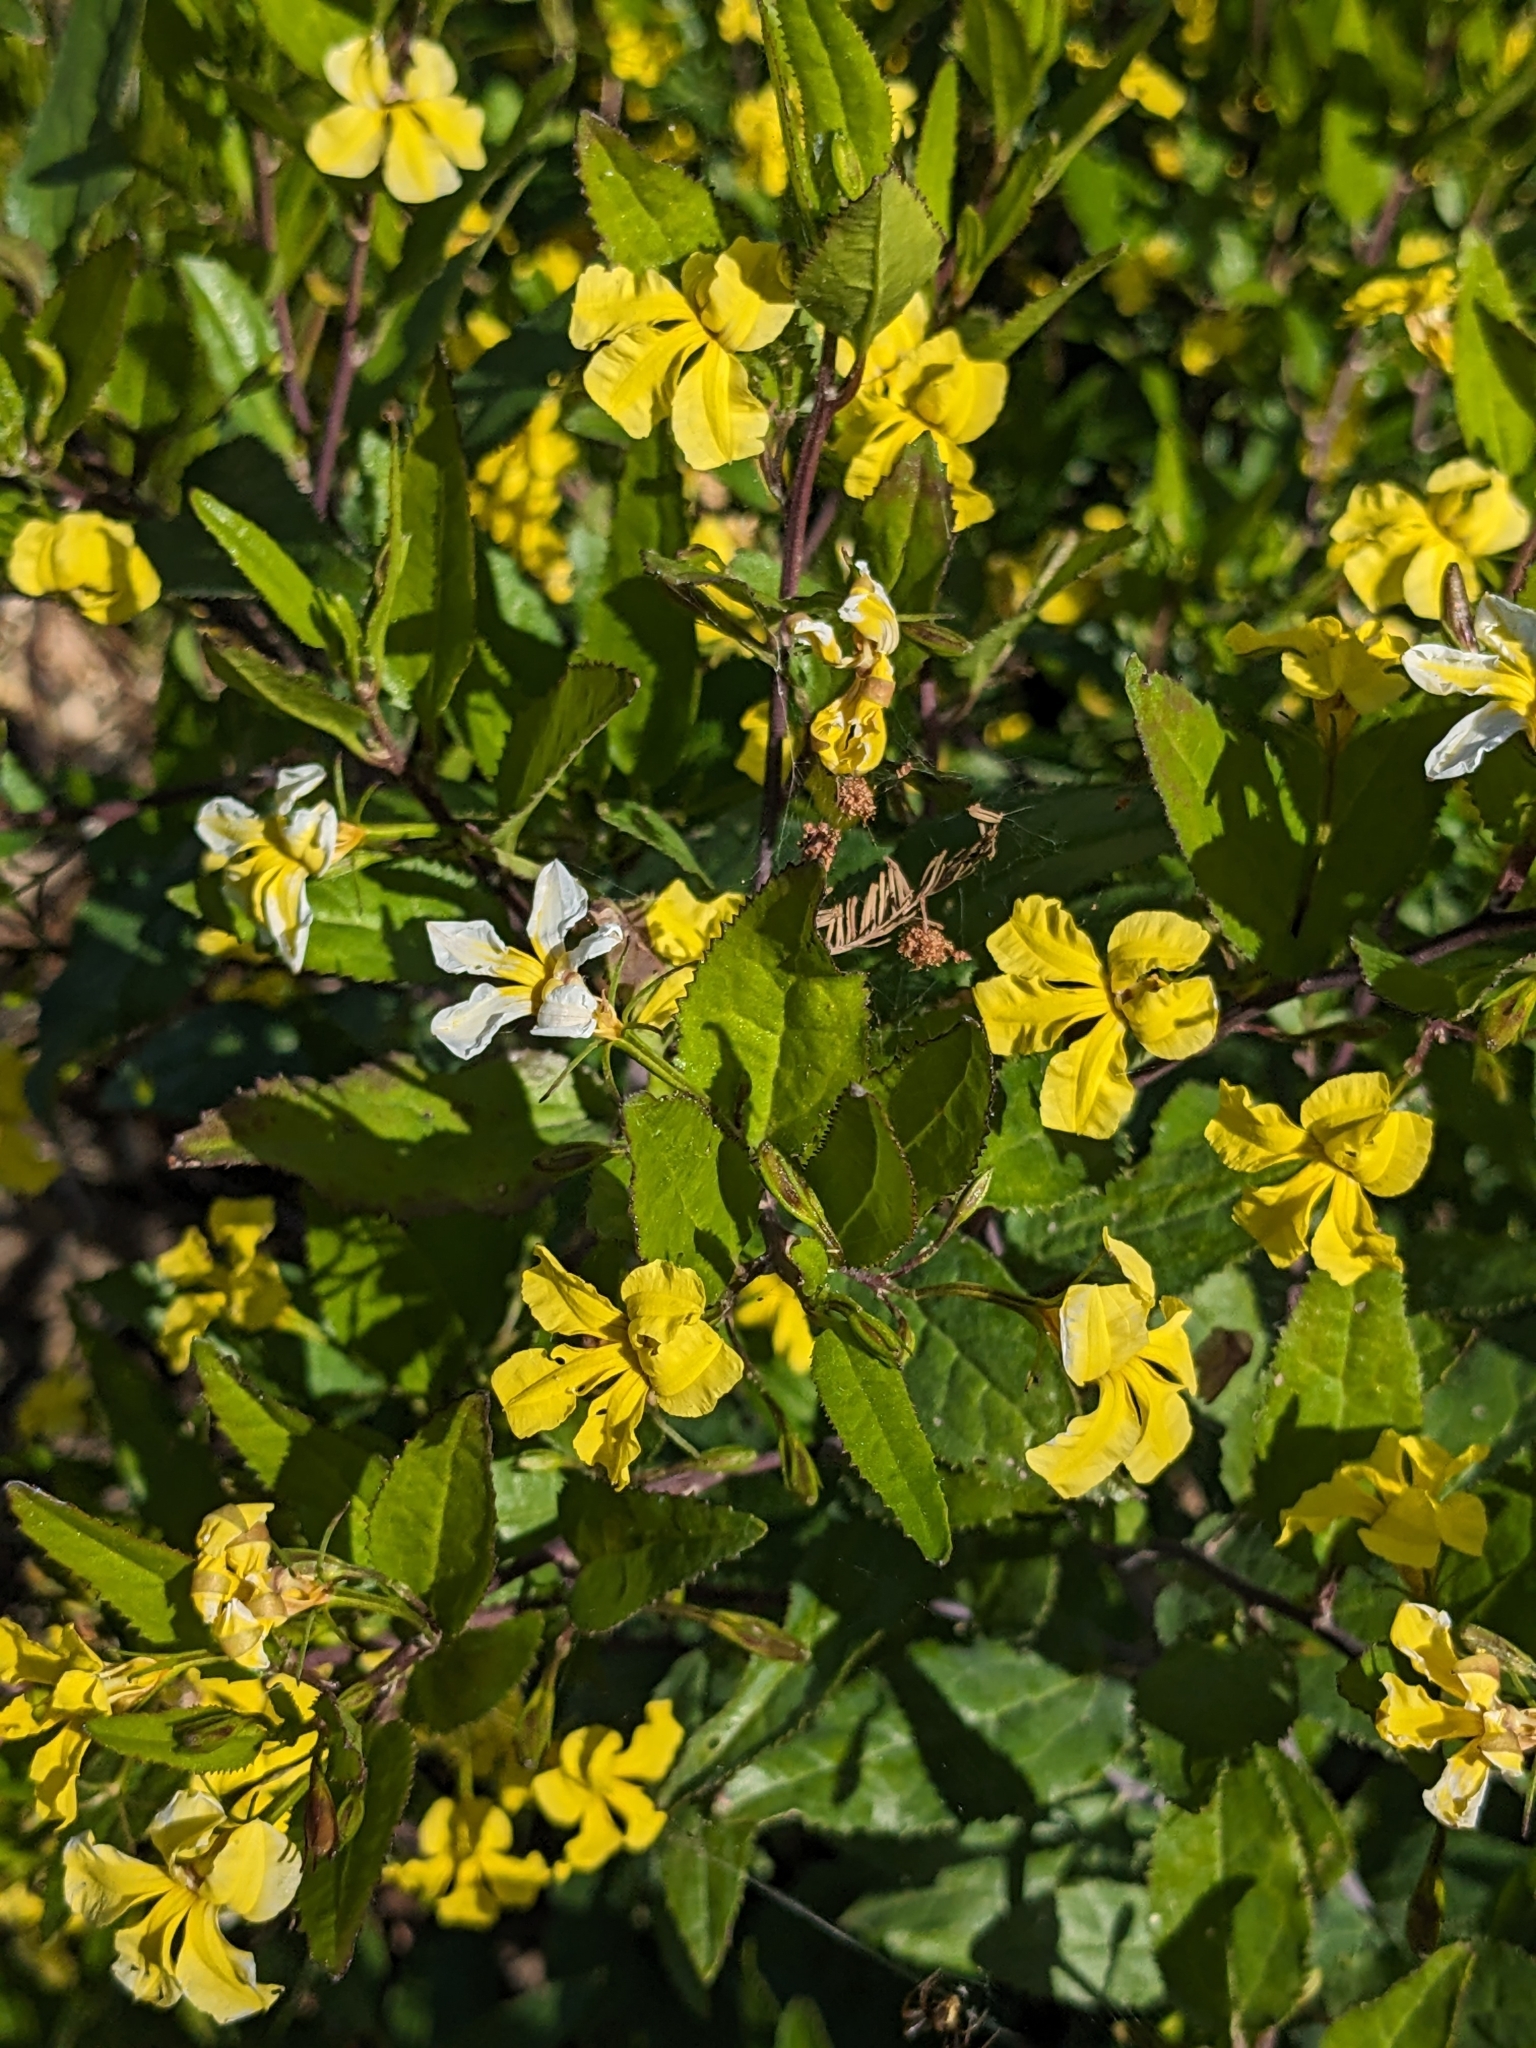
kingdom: Plantae
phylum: Tracheophyta
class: Magnoliopsida
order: Asterales
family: Goodeniaceae
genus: Goodenia
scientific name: Goodenia ovata
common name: Hop goodenia
